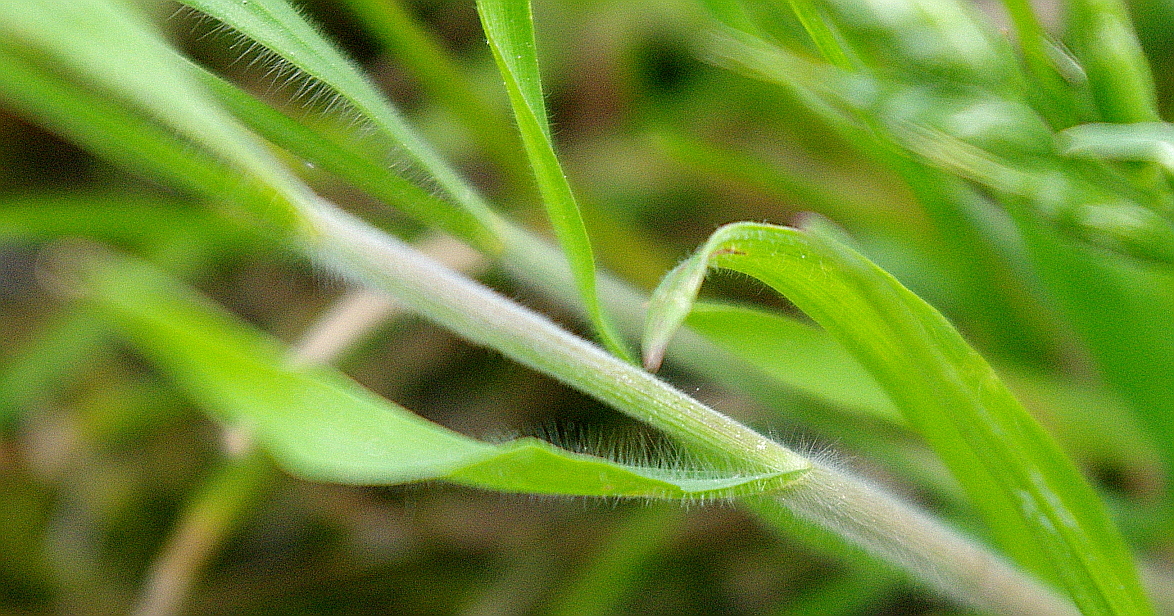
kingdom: Plantae
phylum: Tracheophyta
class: Liliopsida
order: Poales
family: Poaceae
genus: Bromus
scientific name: Bromus hordeaceus
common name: Soft brome
